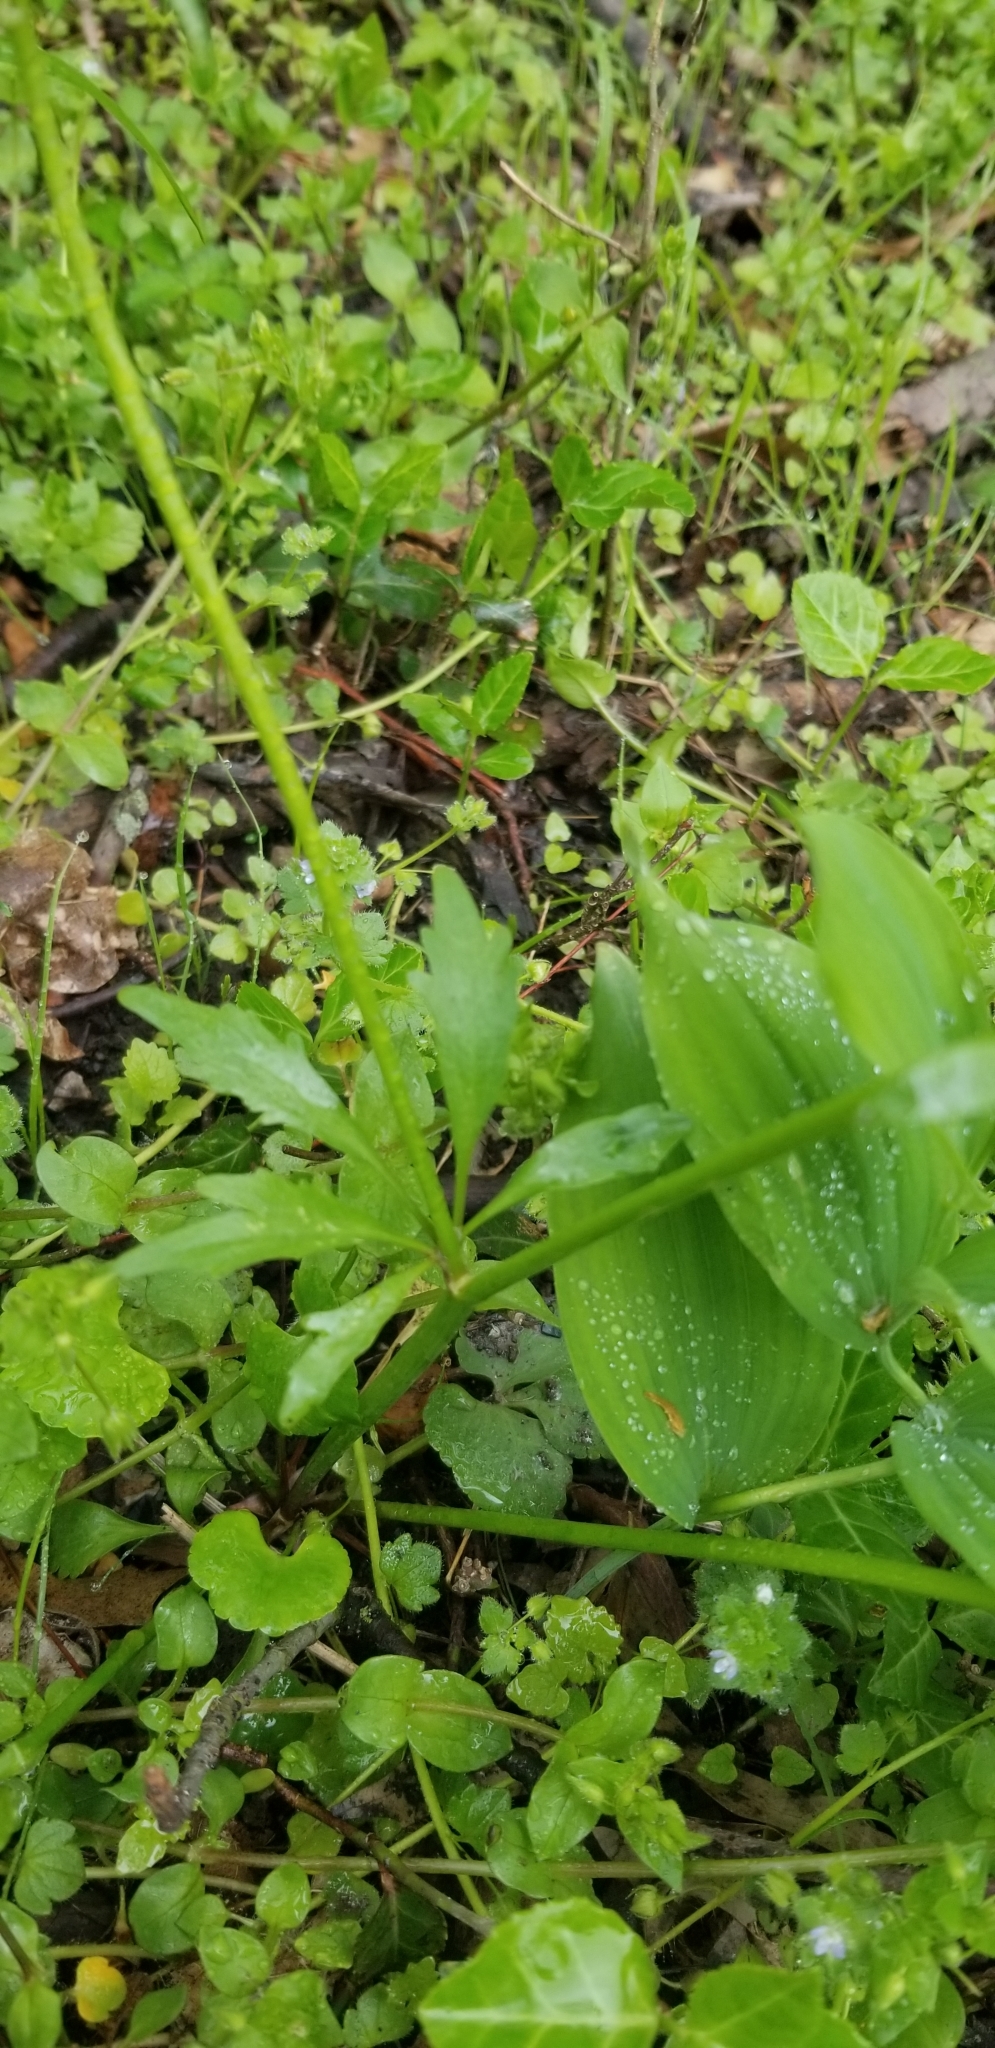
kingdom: Plantae
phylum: Tracheophyta
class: Magnoliopsida
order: Ranunculales
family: Ranunculaceae
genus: Ranunculus
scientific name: Ranunculus abortivus
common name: Early wood buttercup
